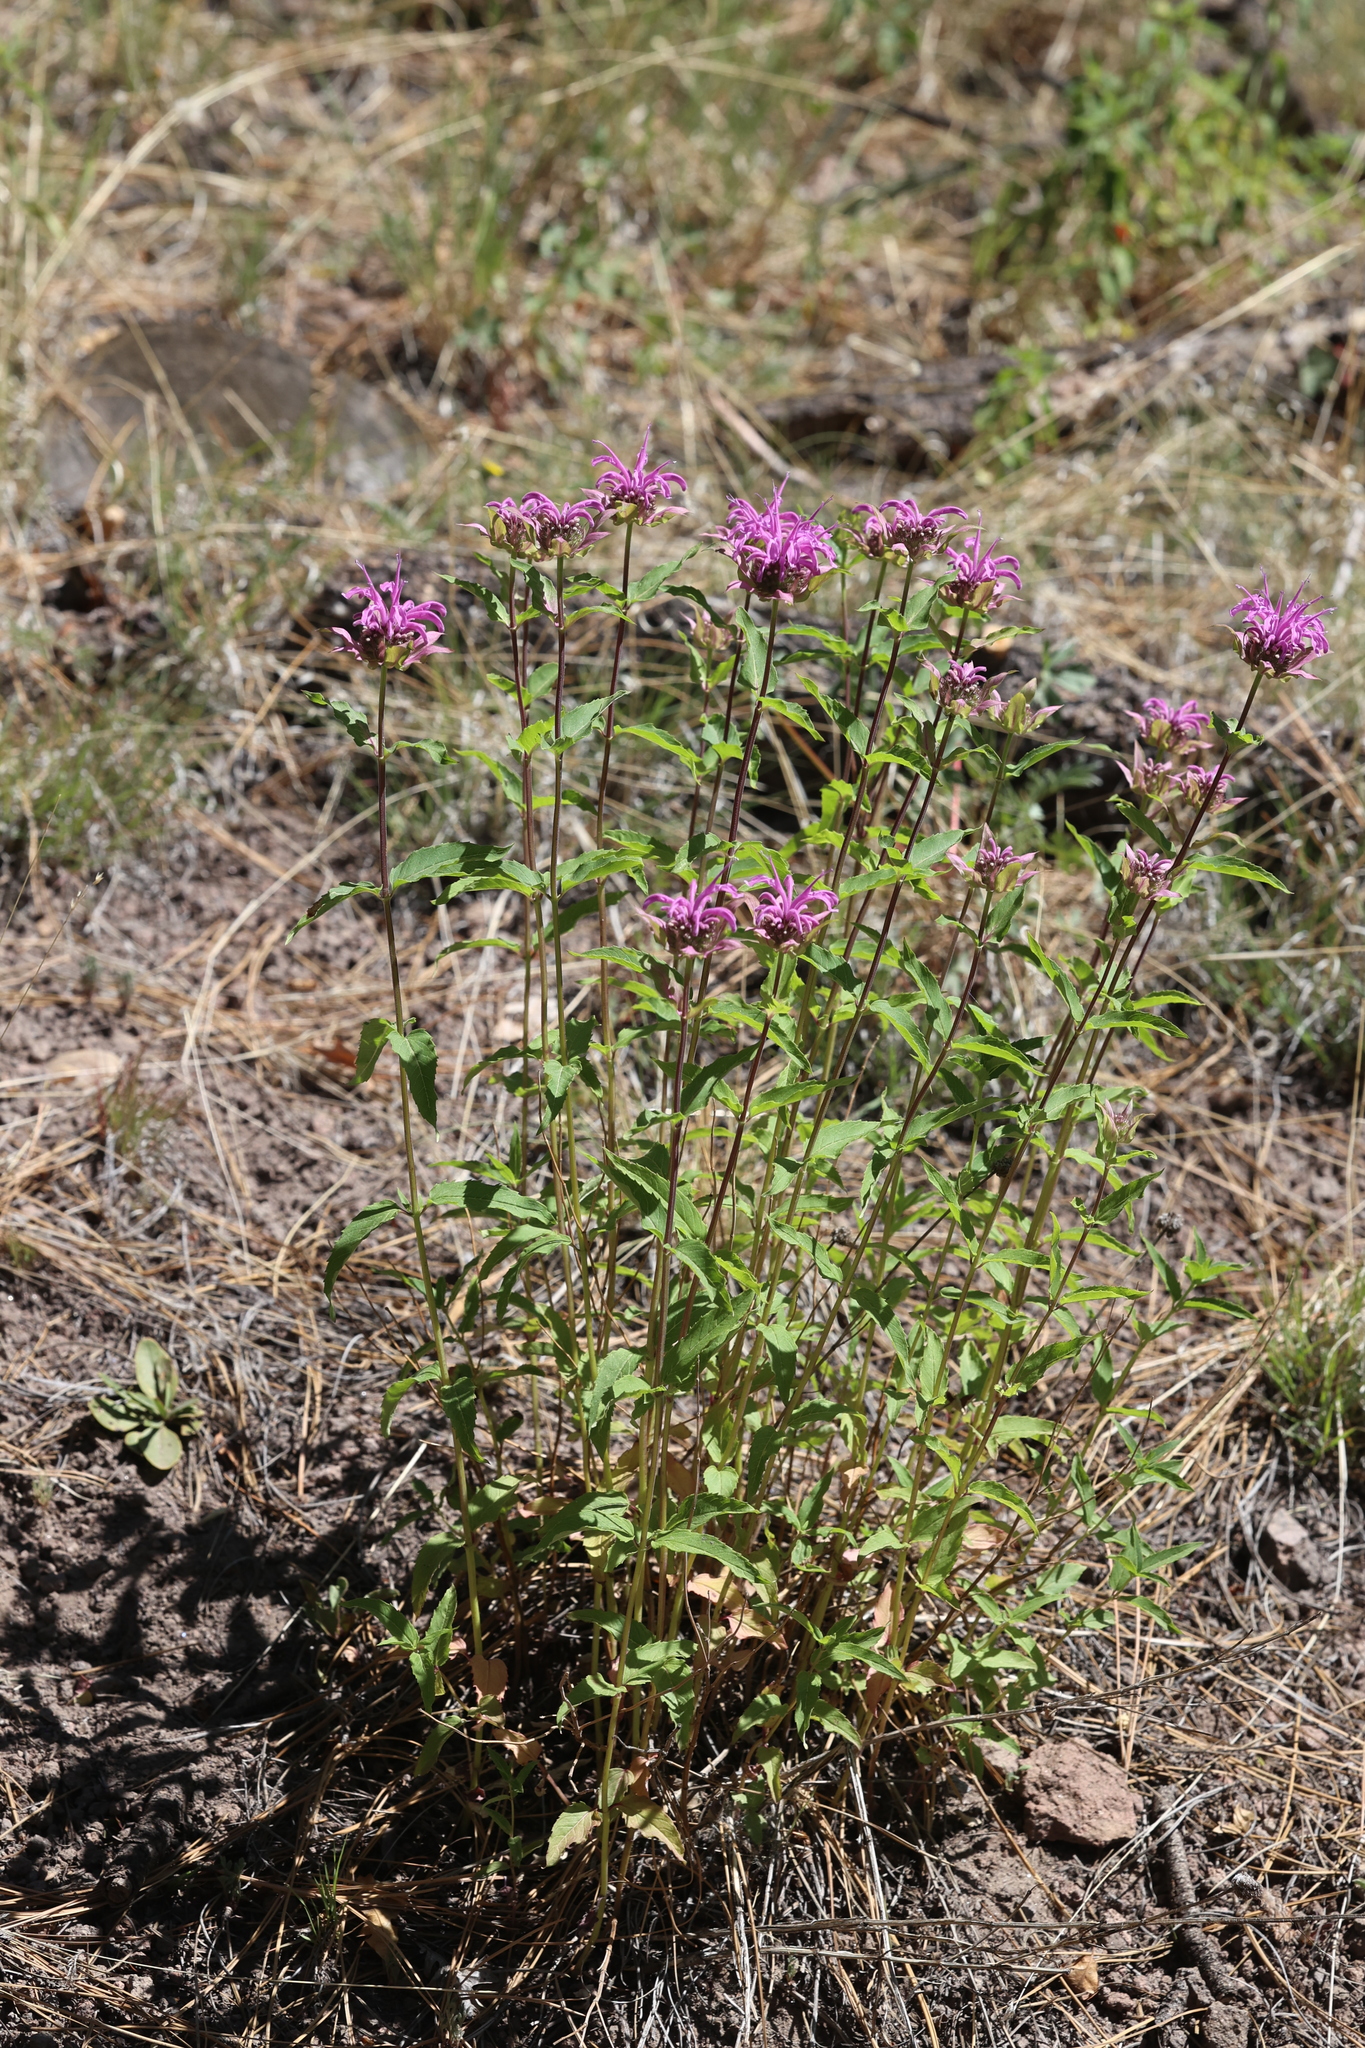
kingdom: Plantae
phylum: Tracheophyta
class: Magnoliopsida
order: Lamiales
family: Lamiaceae
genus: Monarda
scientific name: Monarda fistulosa
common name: Purple beebalm
